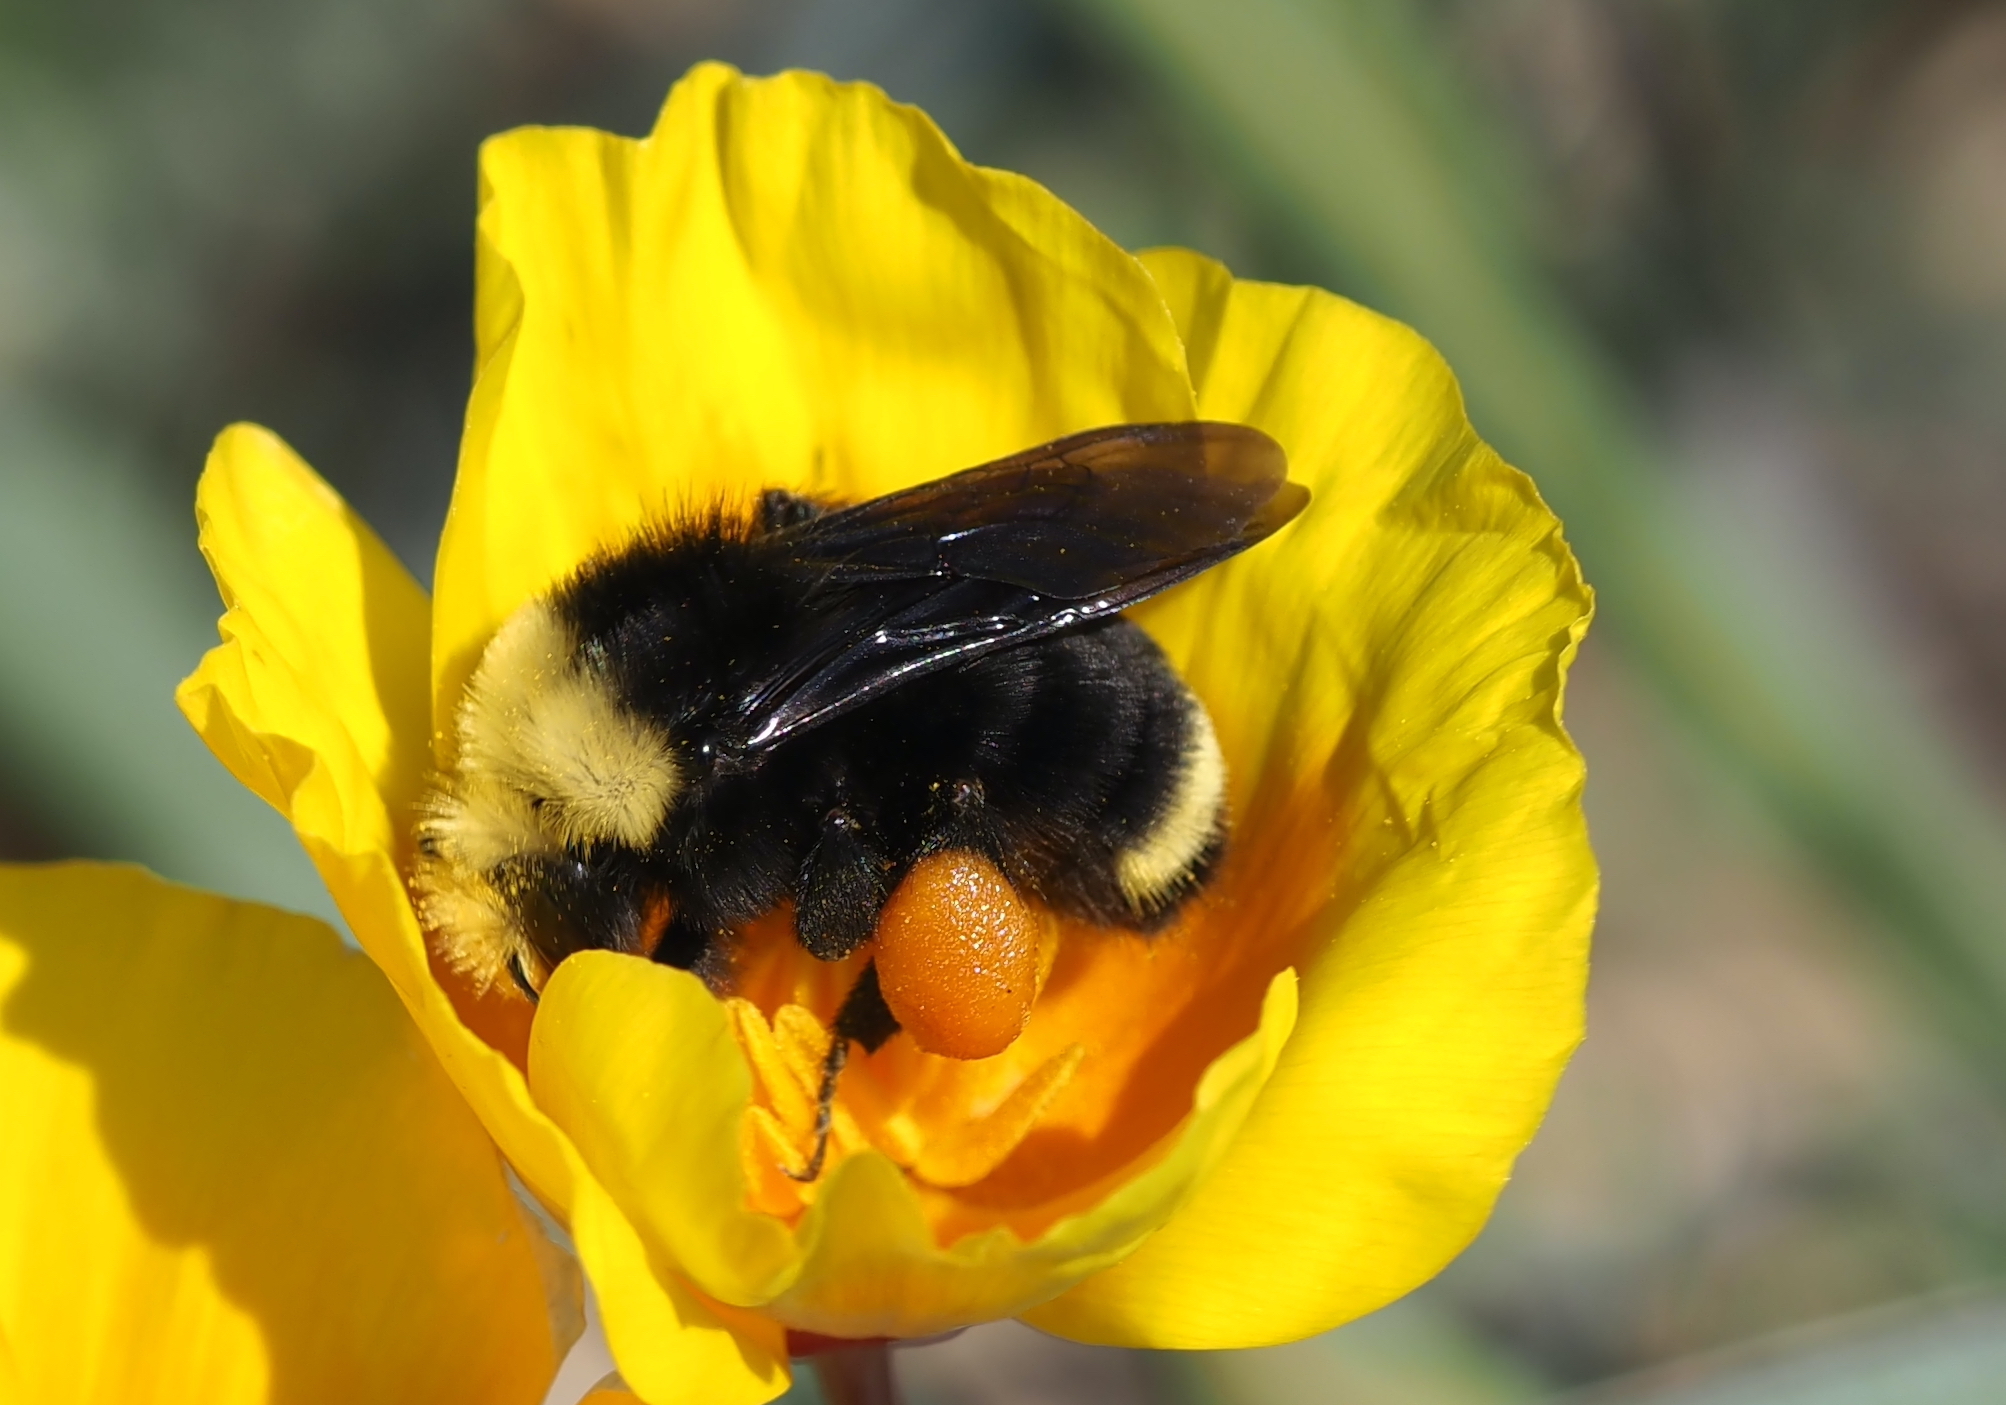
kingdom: Animalia
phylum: Arthropoda
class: Insecta
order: Hymenoptera
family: Apidae
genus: Bombus
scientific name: Bombus vosnesenskii
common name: Vosnesensky bumble bee
